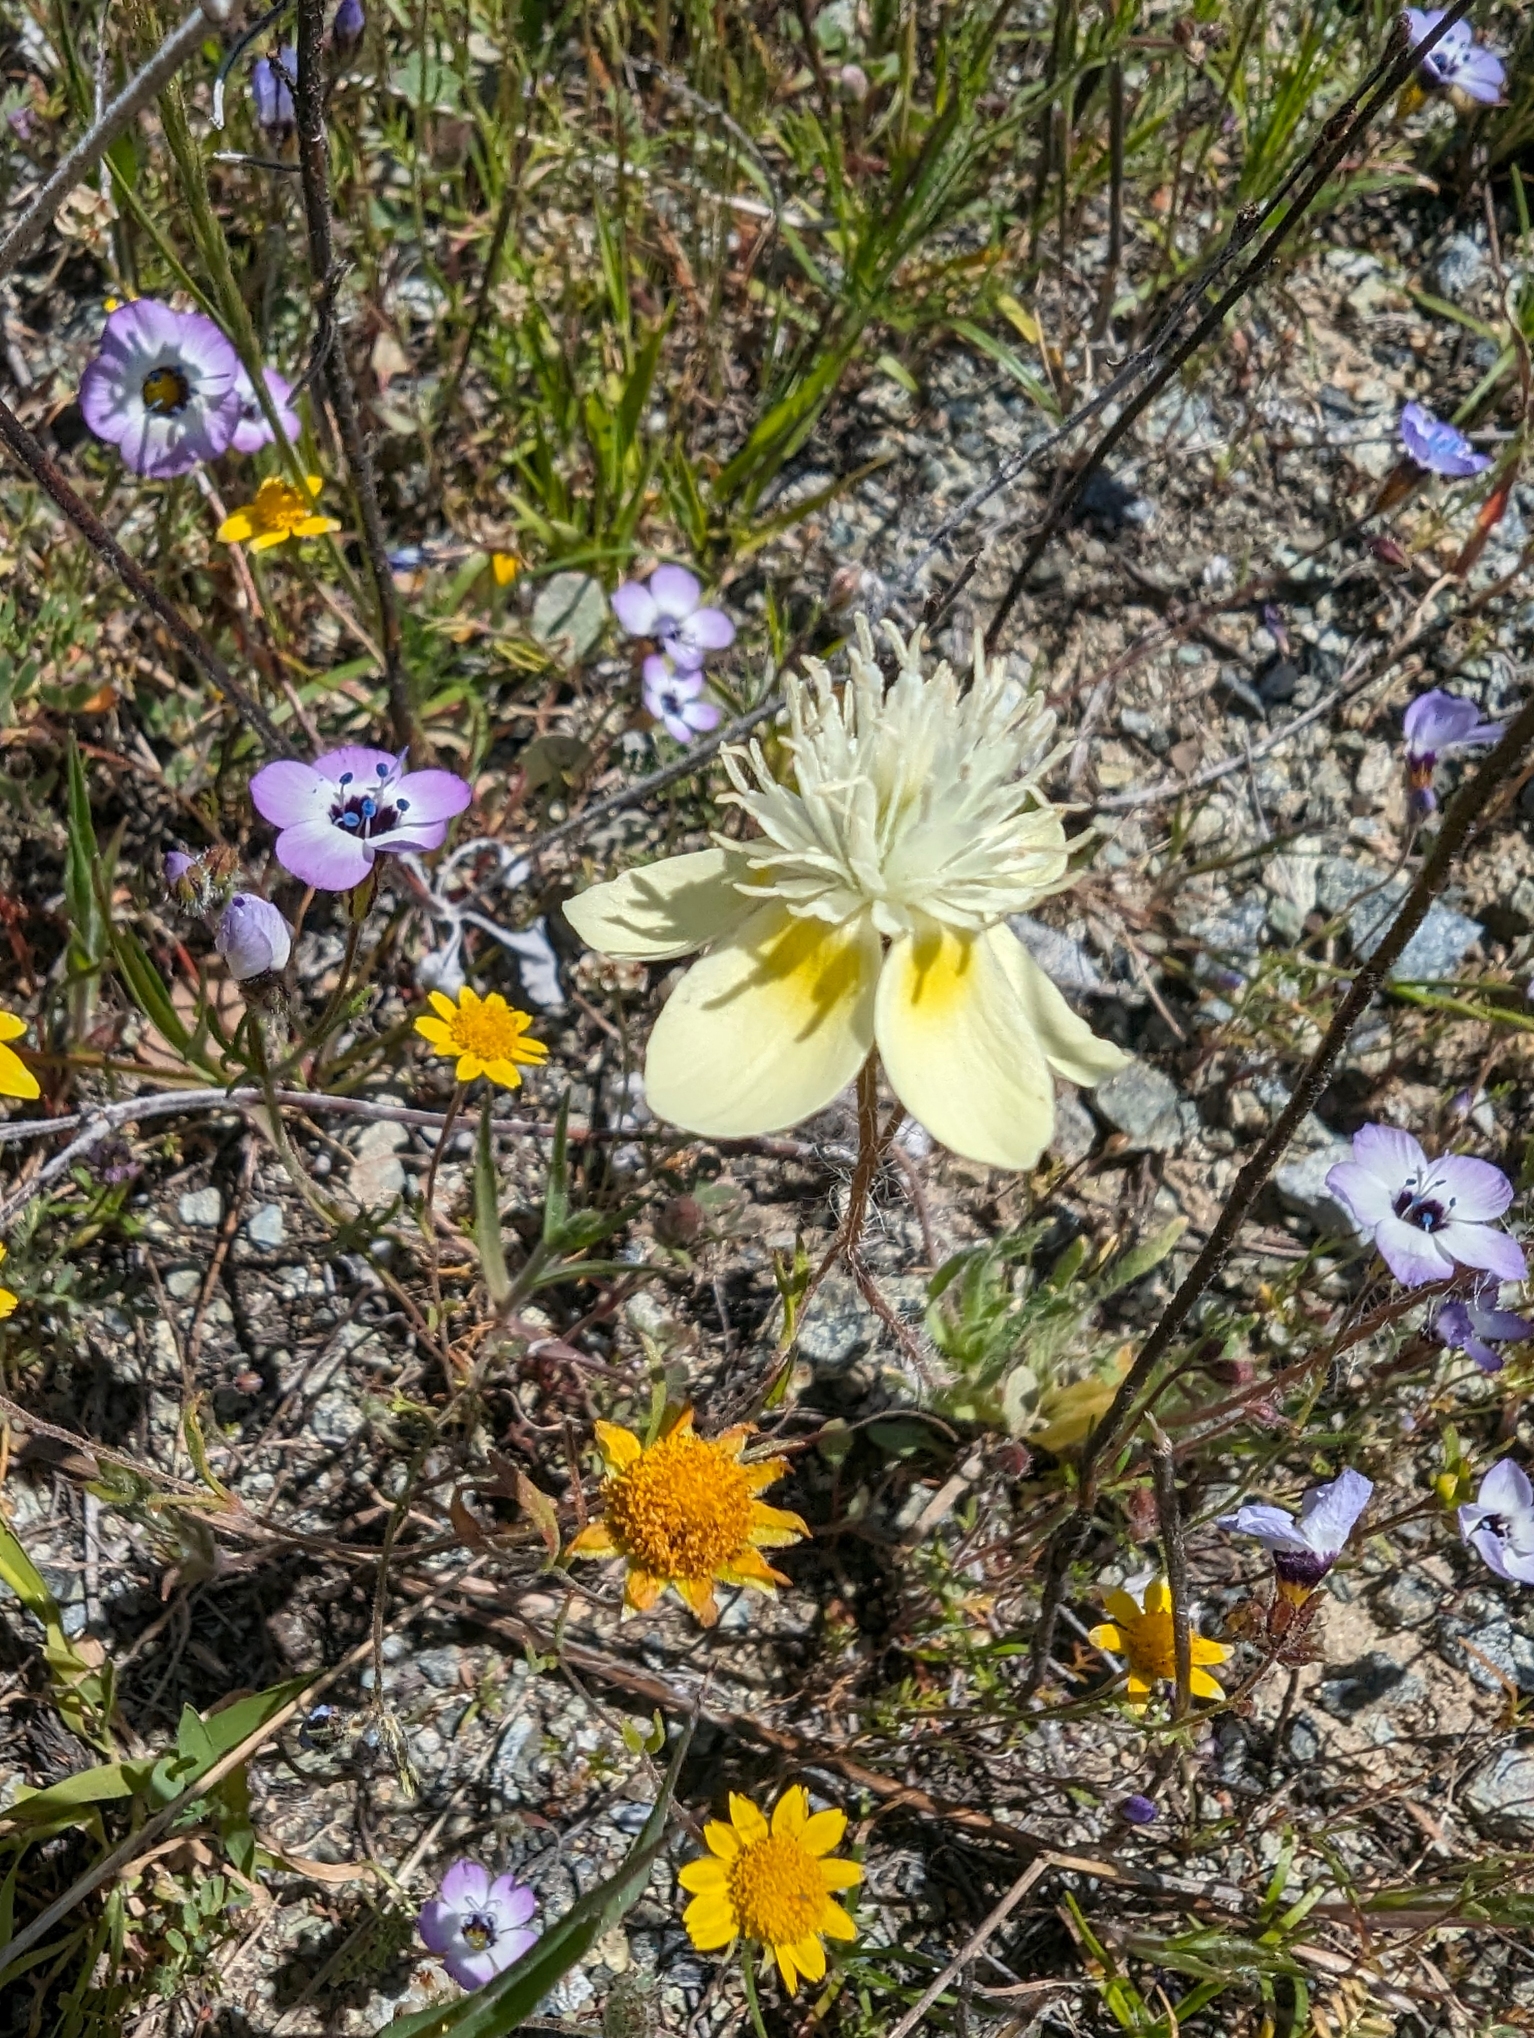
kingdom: Plantae
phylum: Tracheophyta
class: Magnoliopsida
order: Ranunculales
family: Papaveraceae
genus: Platystemon
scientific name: Platystemon californicus
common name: Cream-cups
